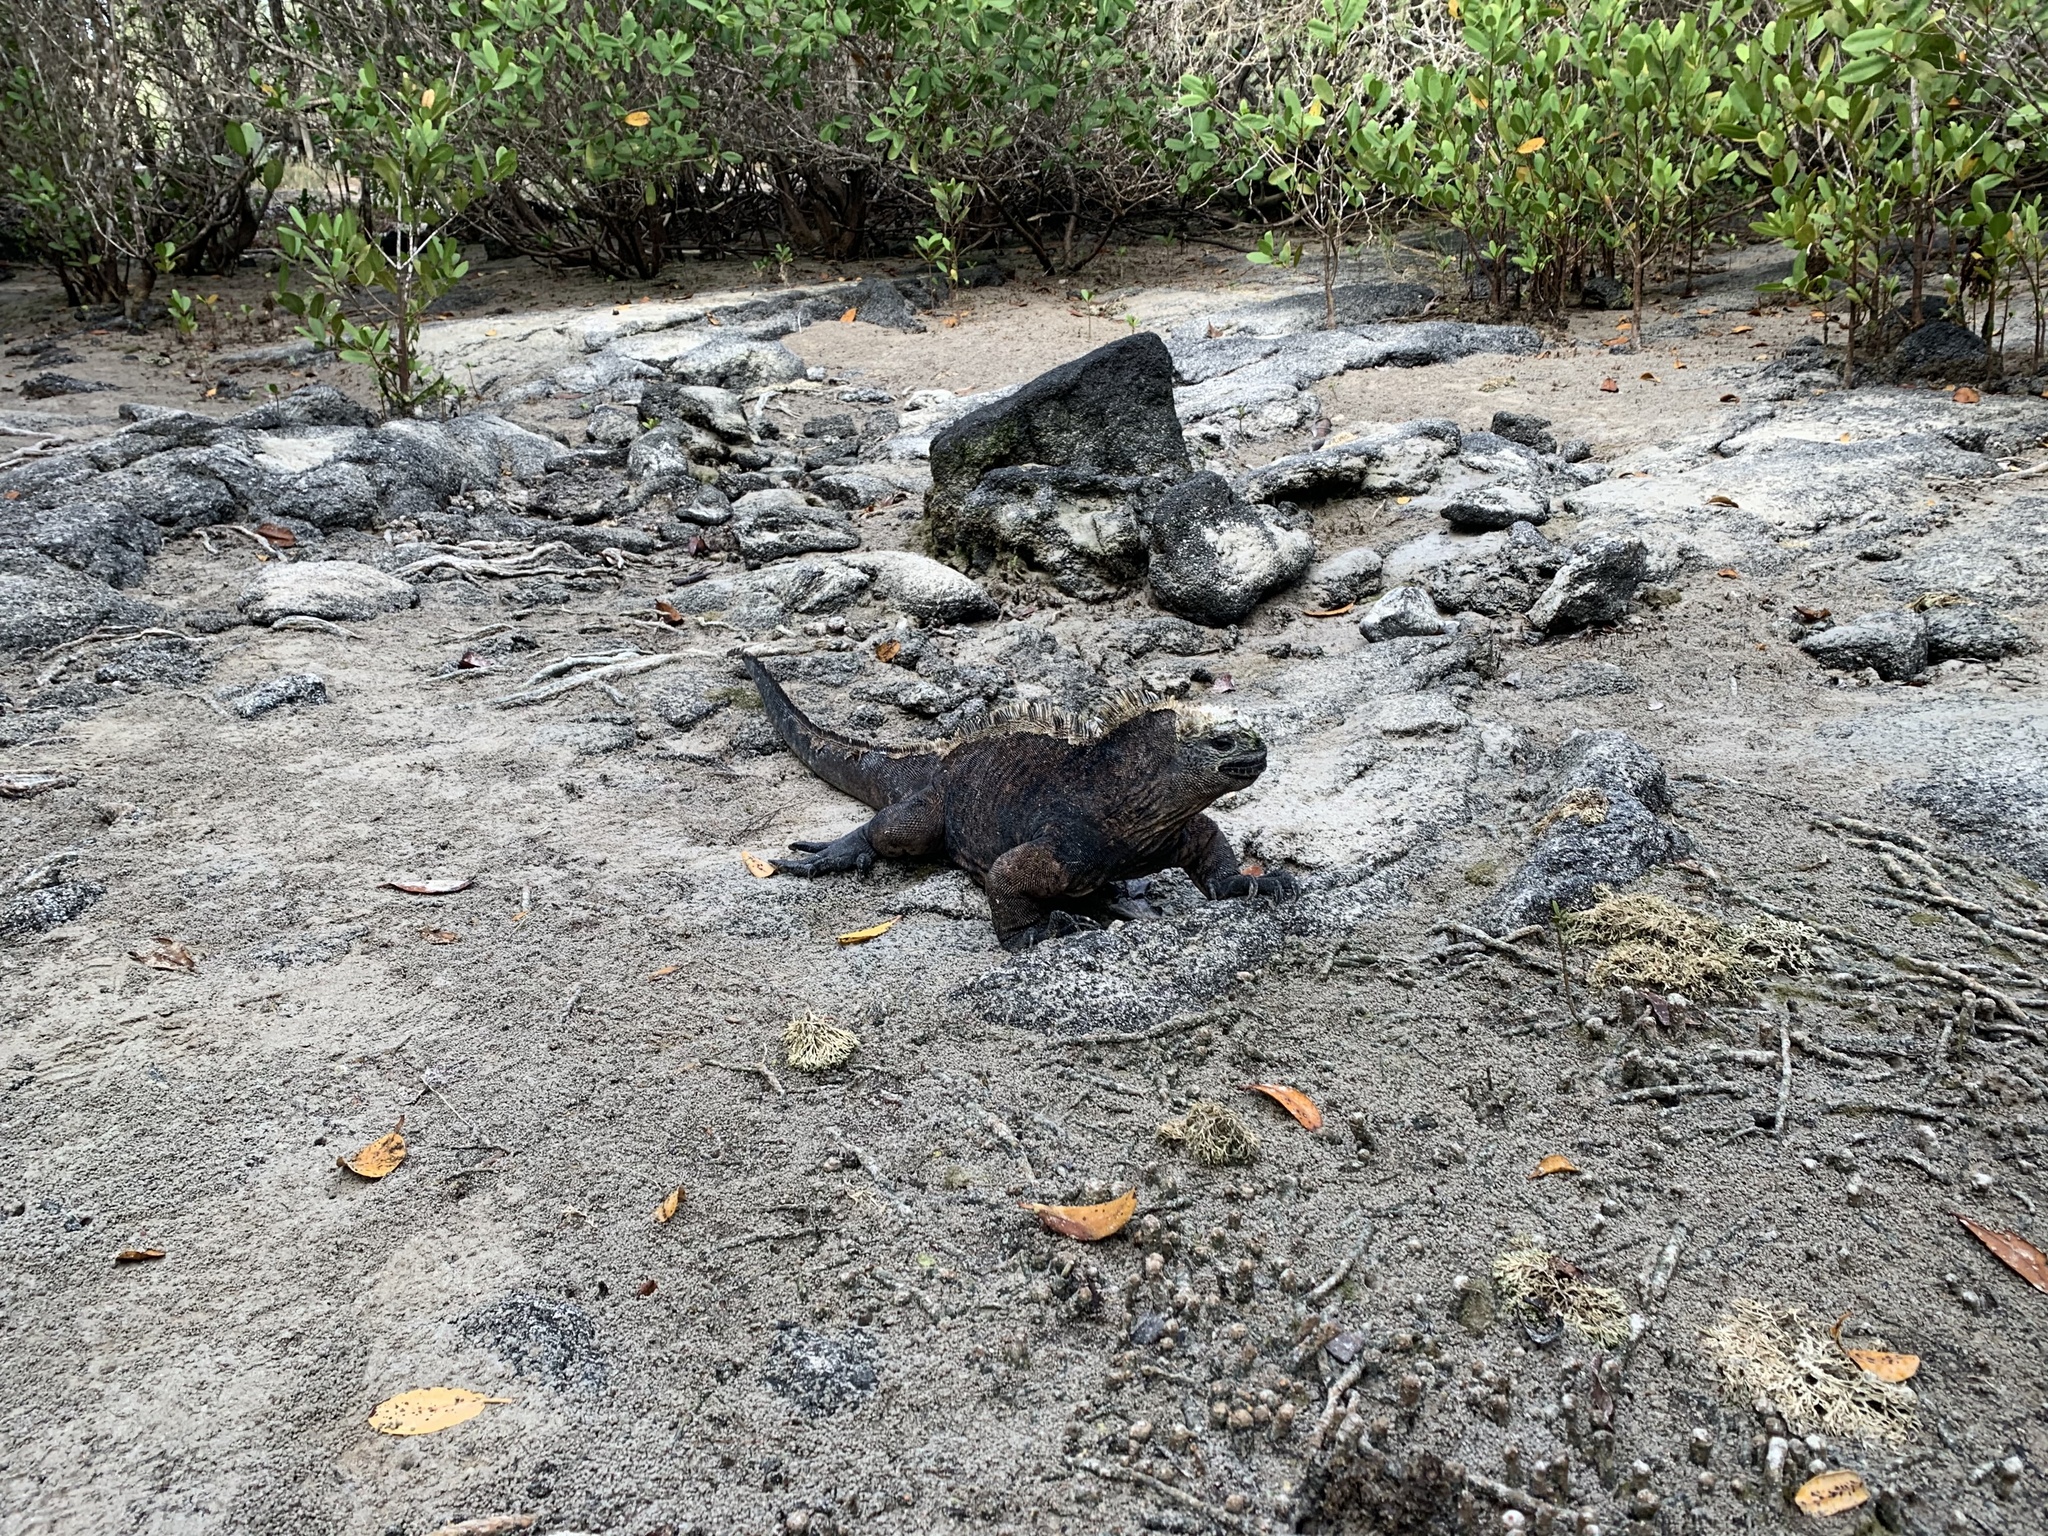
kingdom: Animalia
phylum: Chordata
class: Squamata
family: Iguanidae
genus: Amblyrhynchus
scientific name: Amblyrhynchus cristatus
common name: Marine iguana
